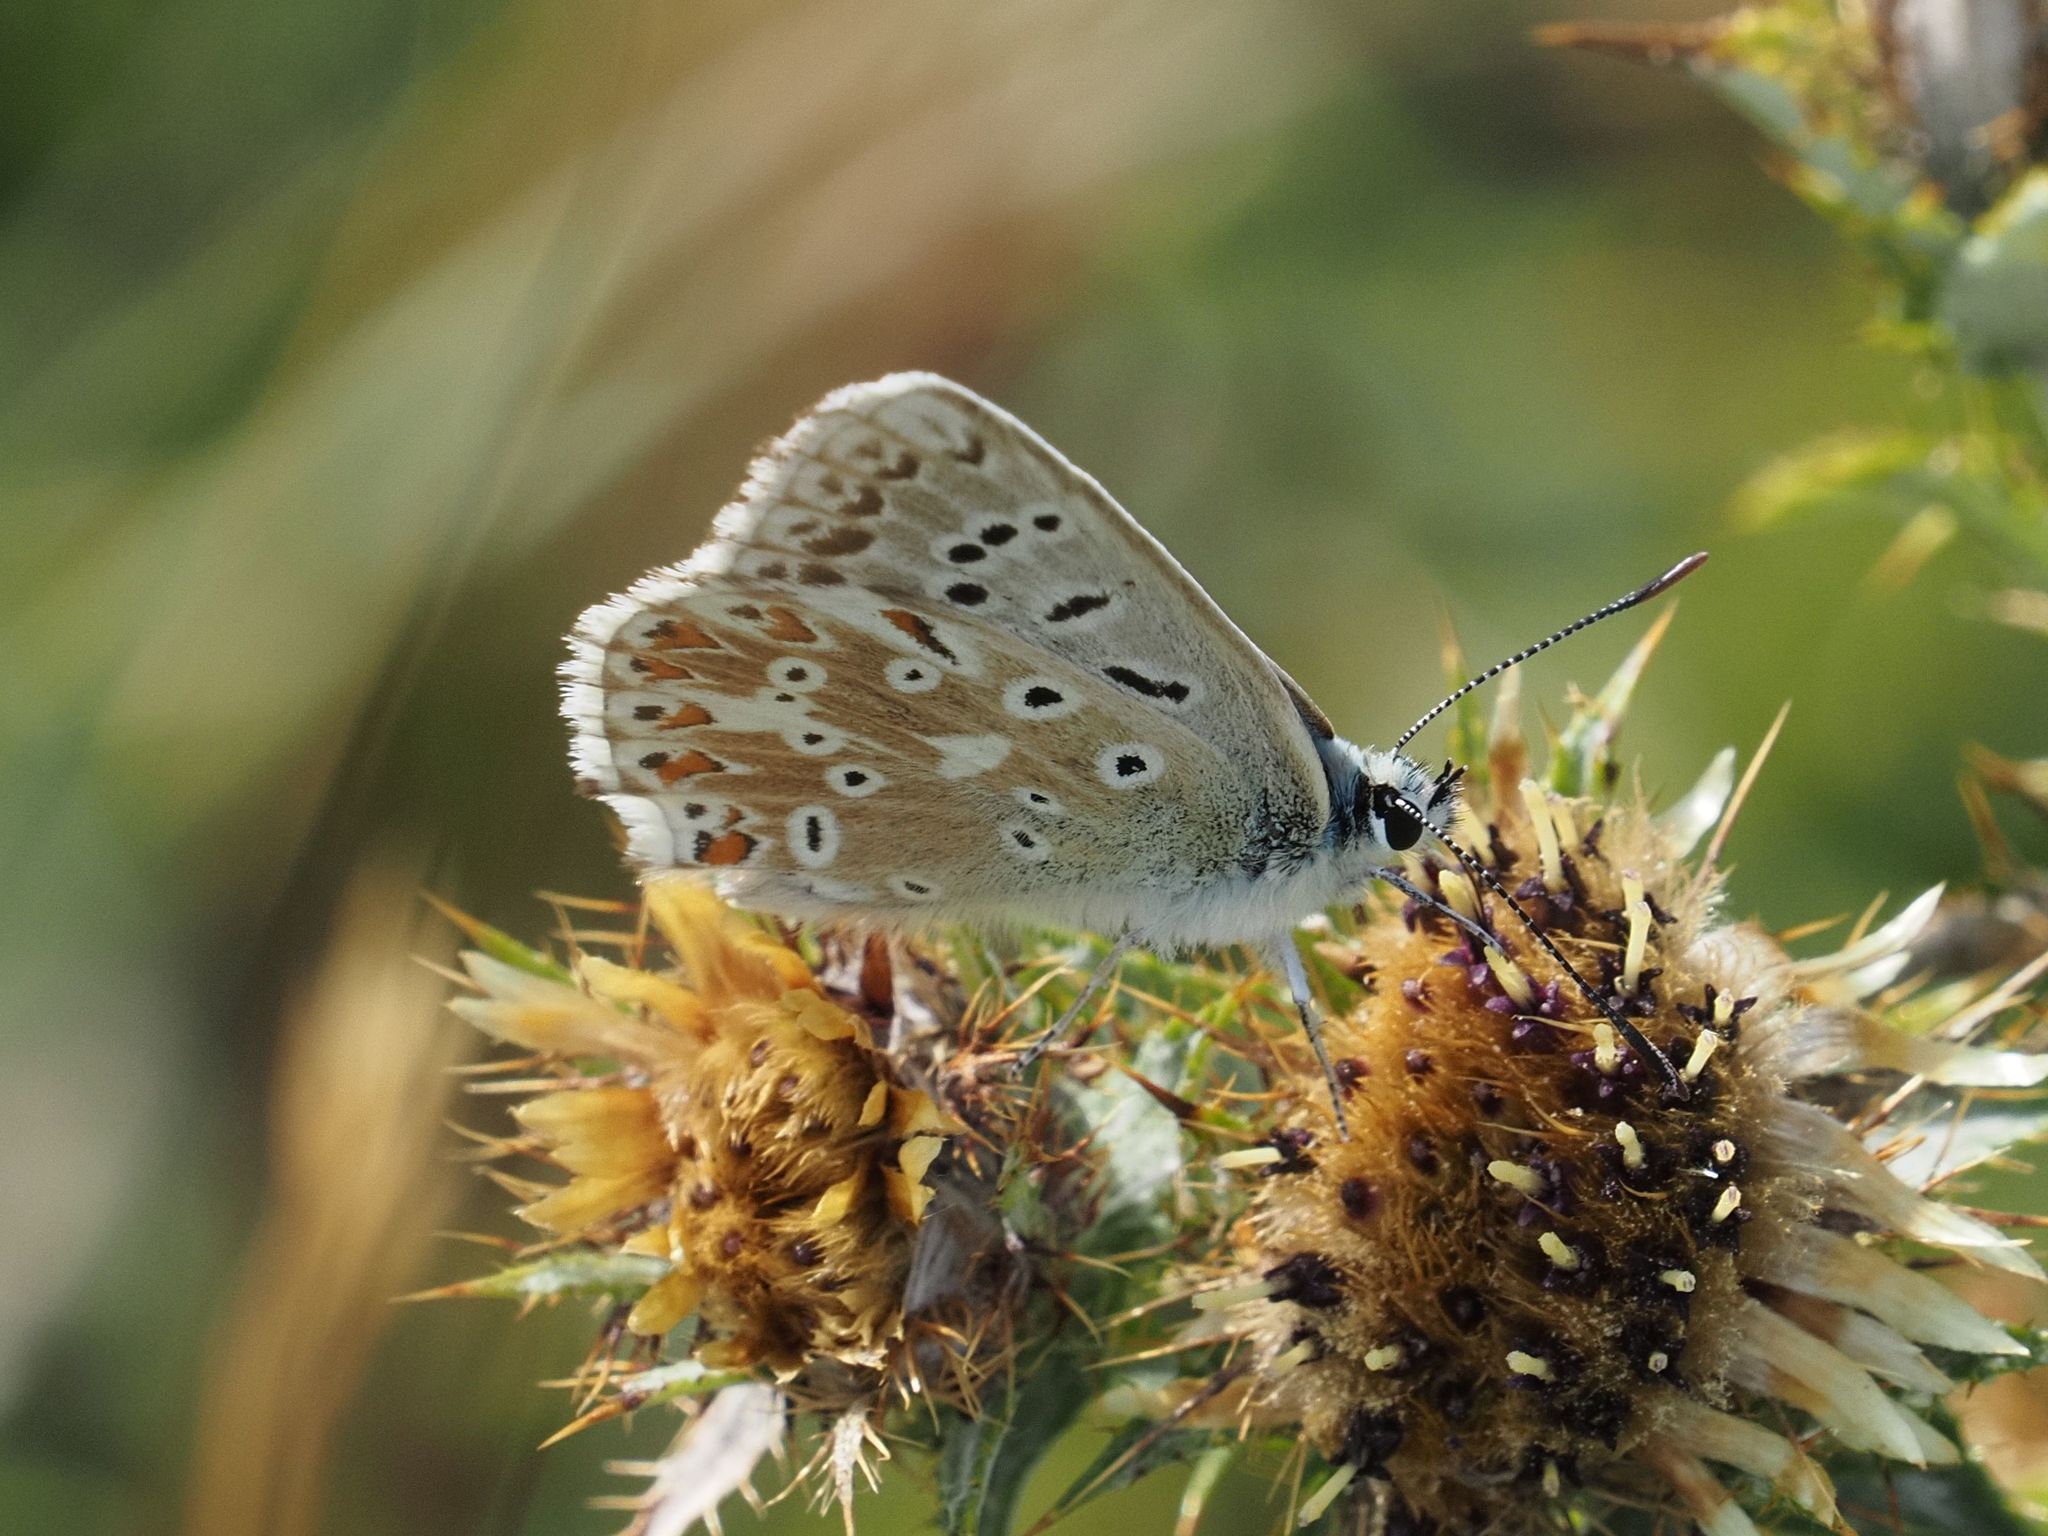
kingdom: Animalia
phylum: Arthropoda
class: Insecta
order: Lepidoptera
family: Lycaenidae
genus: Lysandra
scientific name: Lysandra coridon
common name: Chalkhill blue
